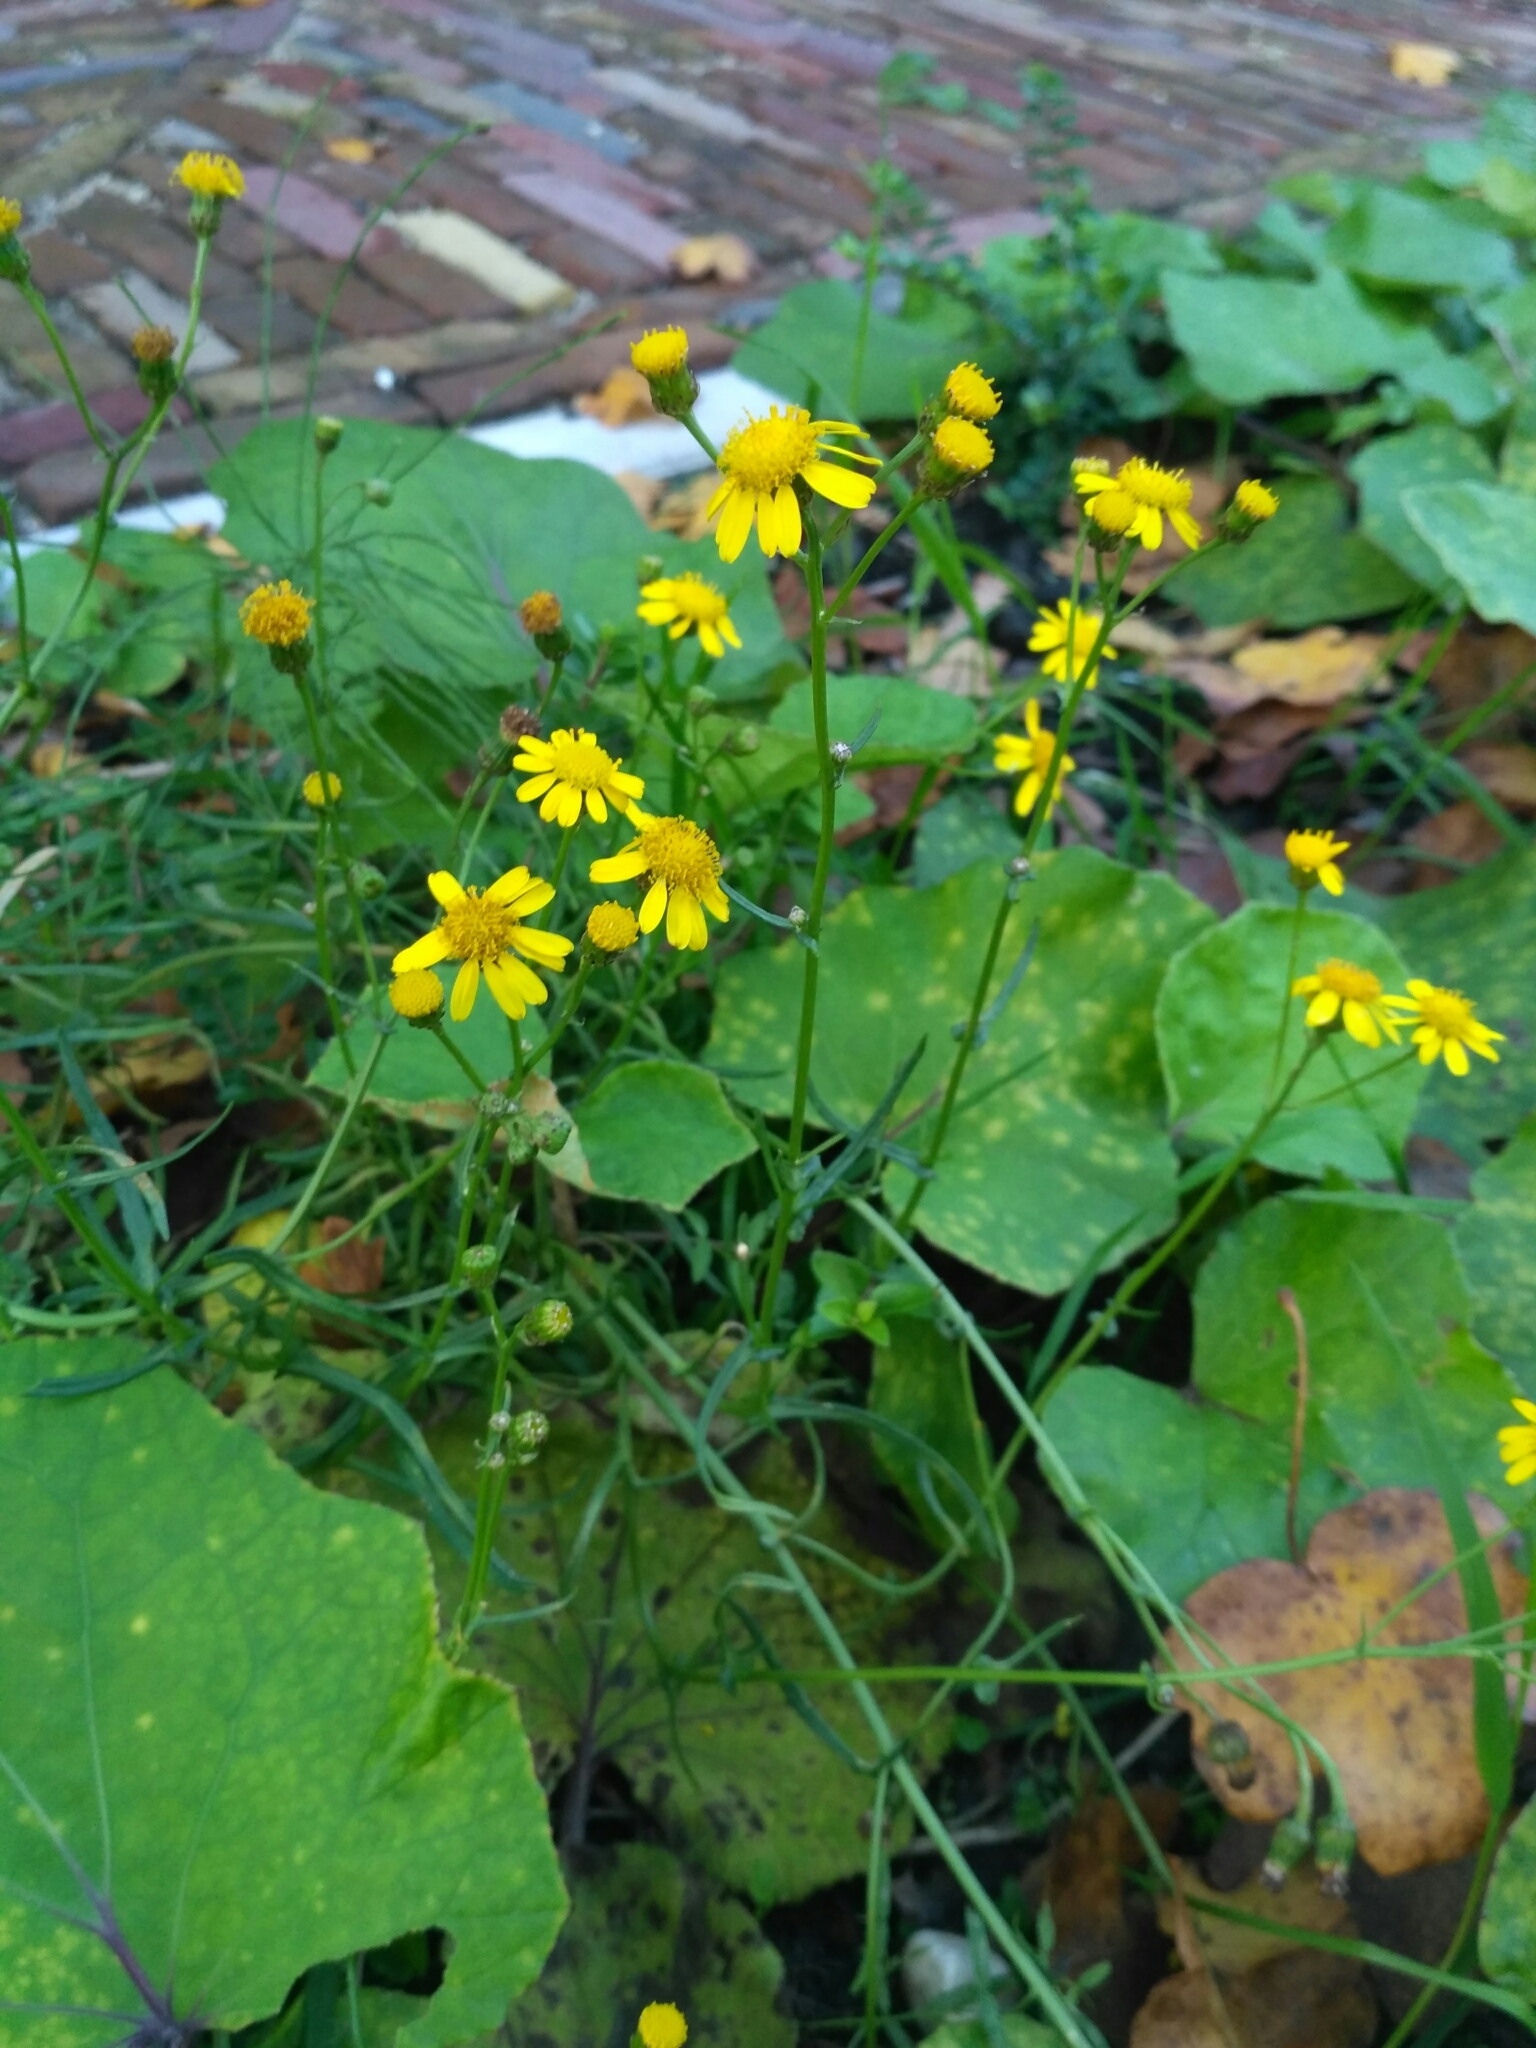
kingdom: Plantae
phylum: Tracheophyta
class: Magnoliopsida
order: Asterales
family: Asteraceae
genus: Senecio
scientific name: Senecio inaequidens
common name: Narrow-leaved ragwort
